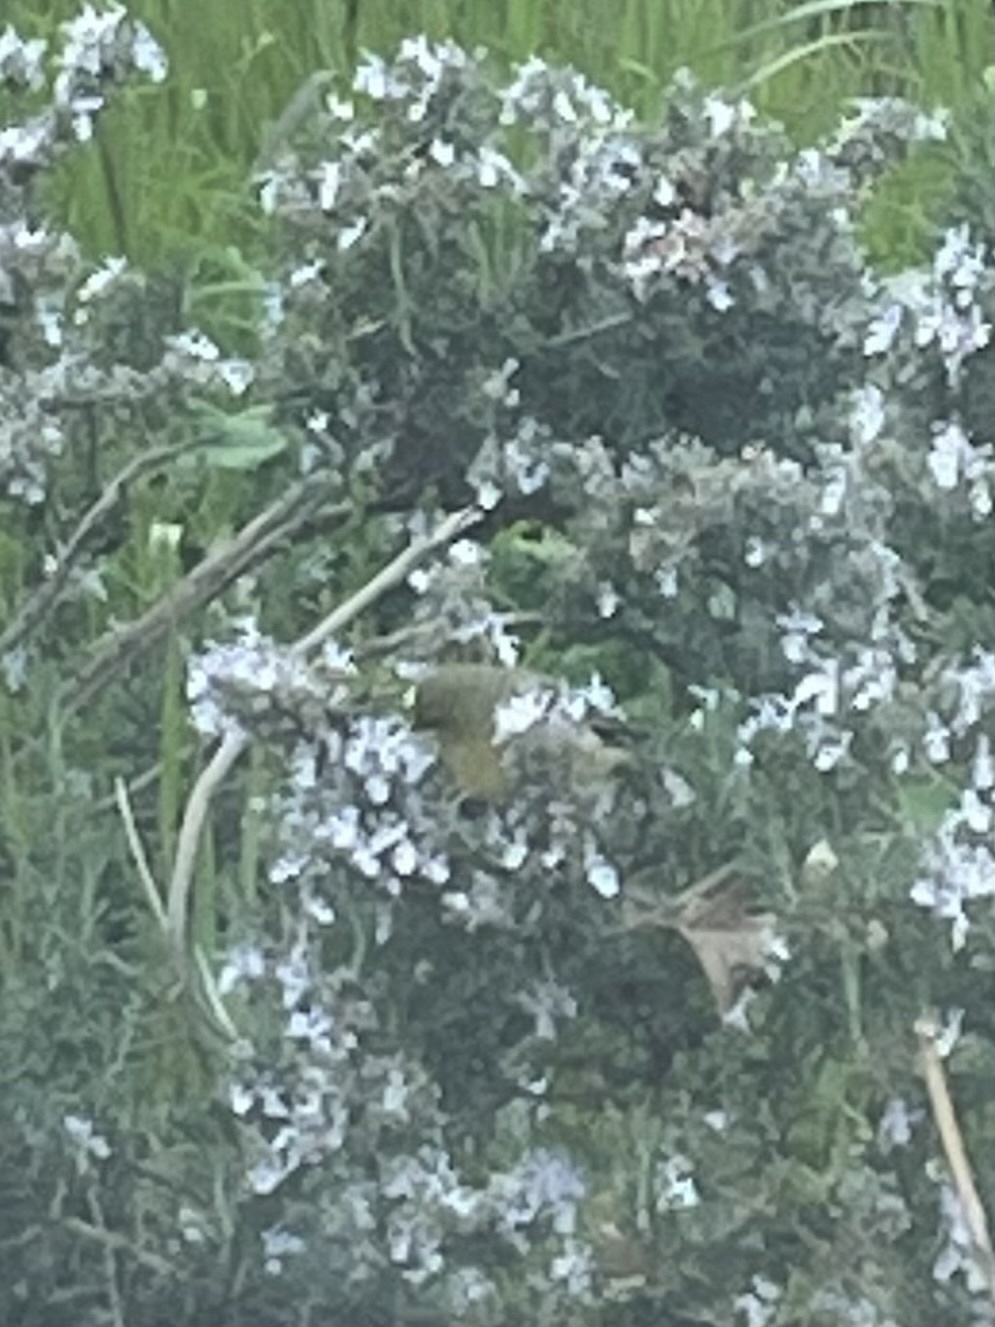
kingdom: Animalia
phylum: Chordata
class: Aves
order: Passeriformes
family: Fringillidae
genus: Spinus
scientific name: Spinus psaltria
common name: Lesser goldfinch
